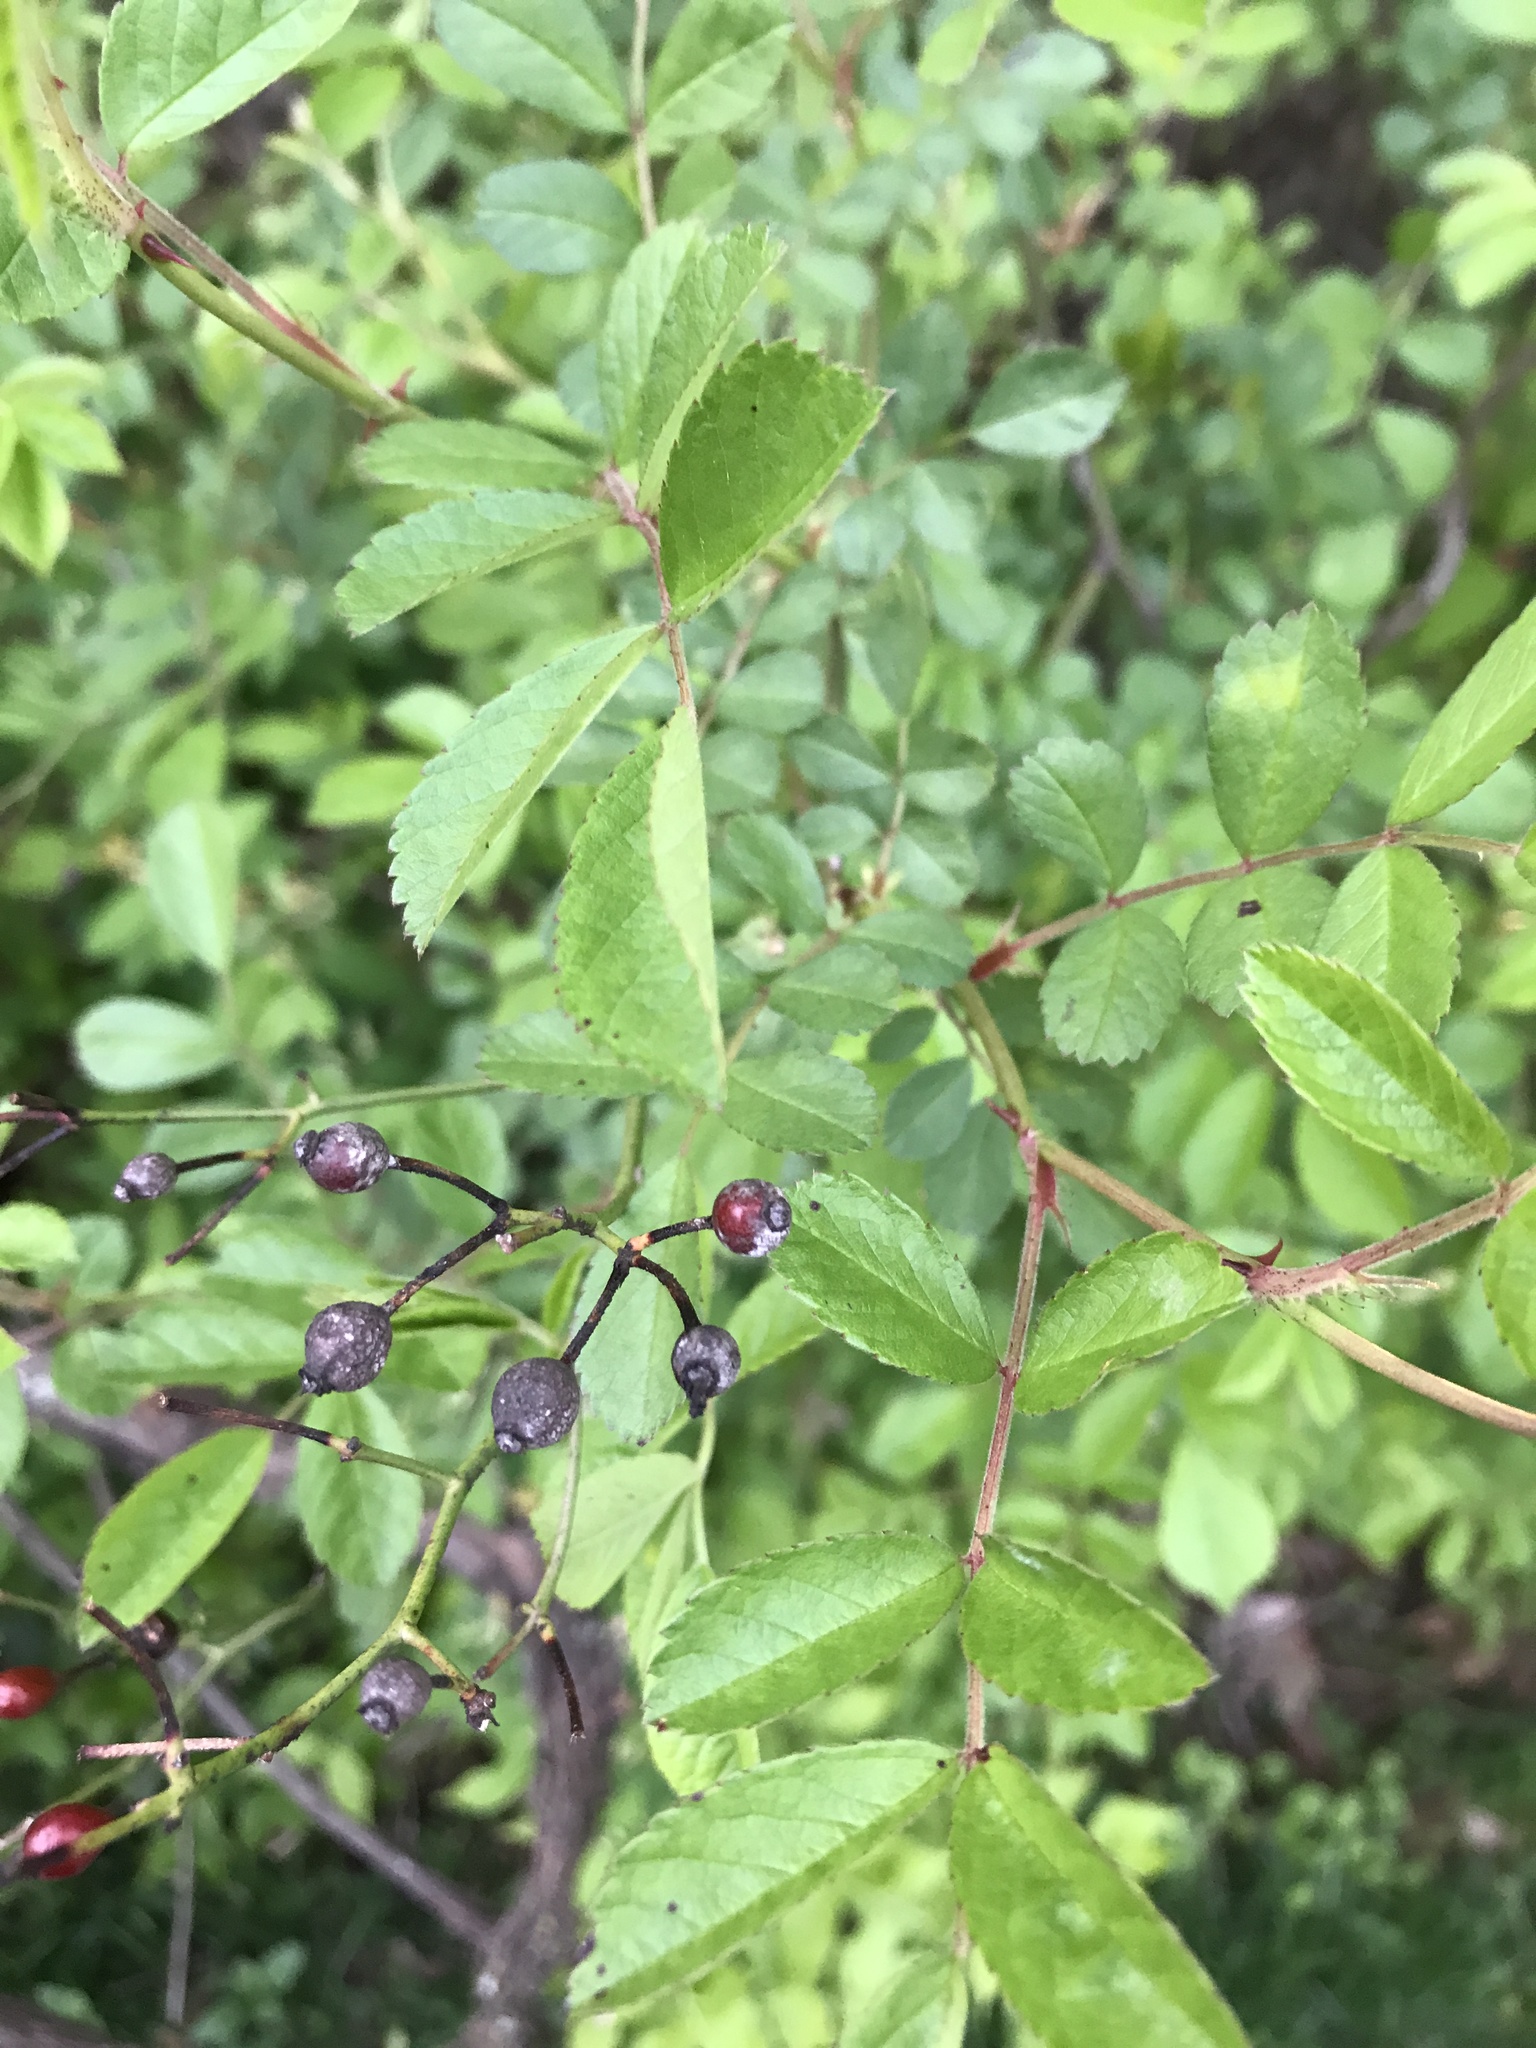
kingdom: Plantae
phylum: Tracheophyta
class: Magnoliopsida
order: Rosales
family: Rosaceae
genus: Rosa
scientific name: Rosa multiflora
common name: Multiflora rose
